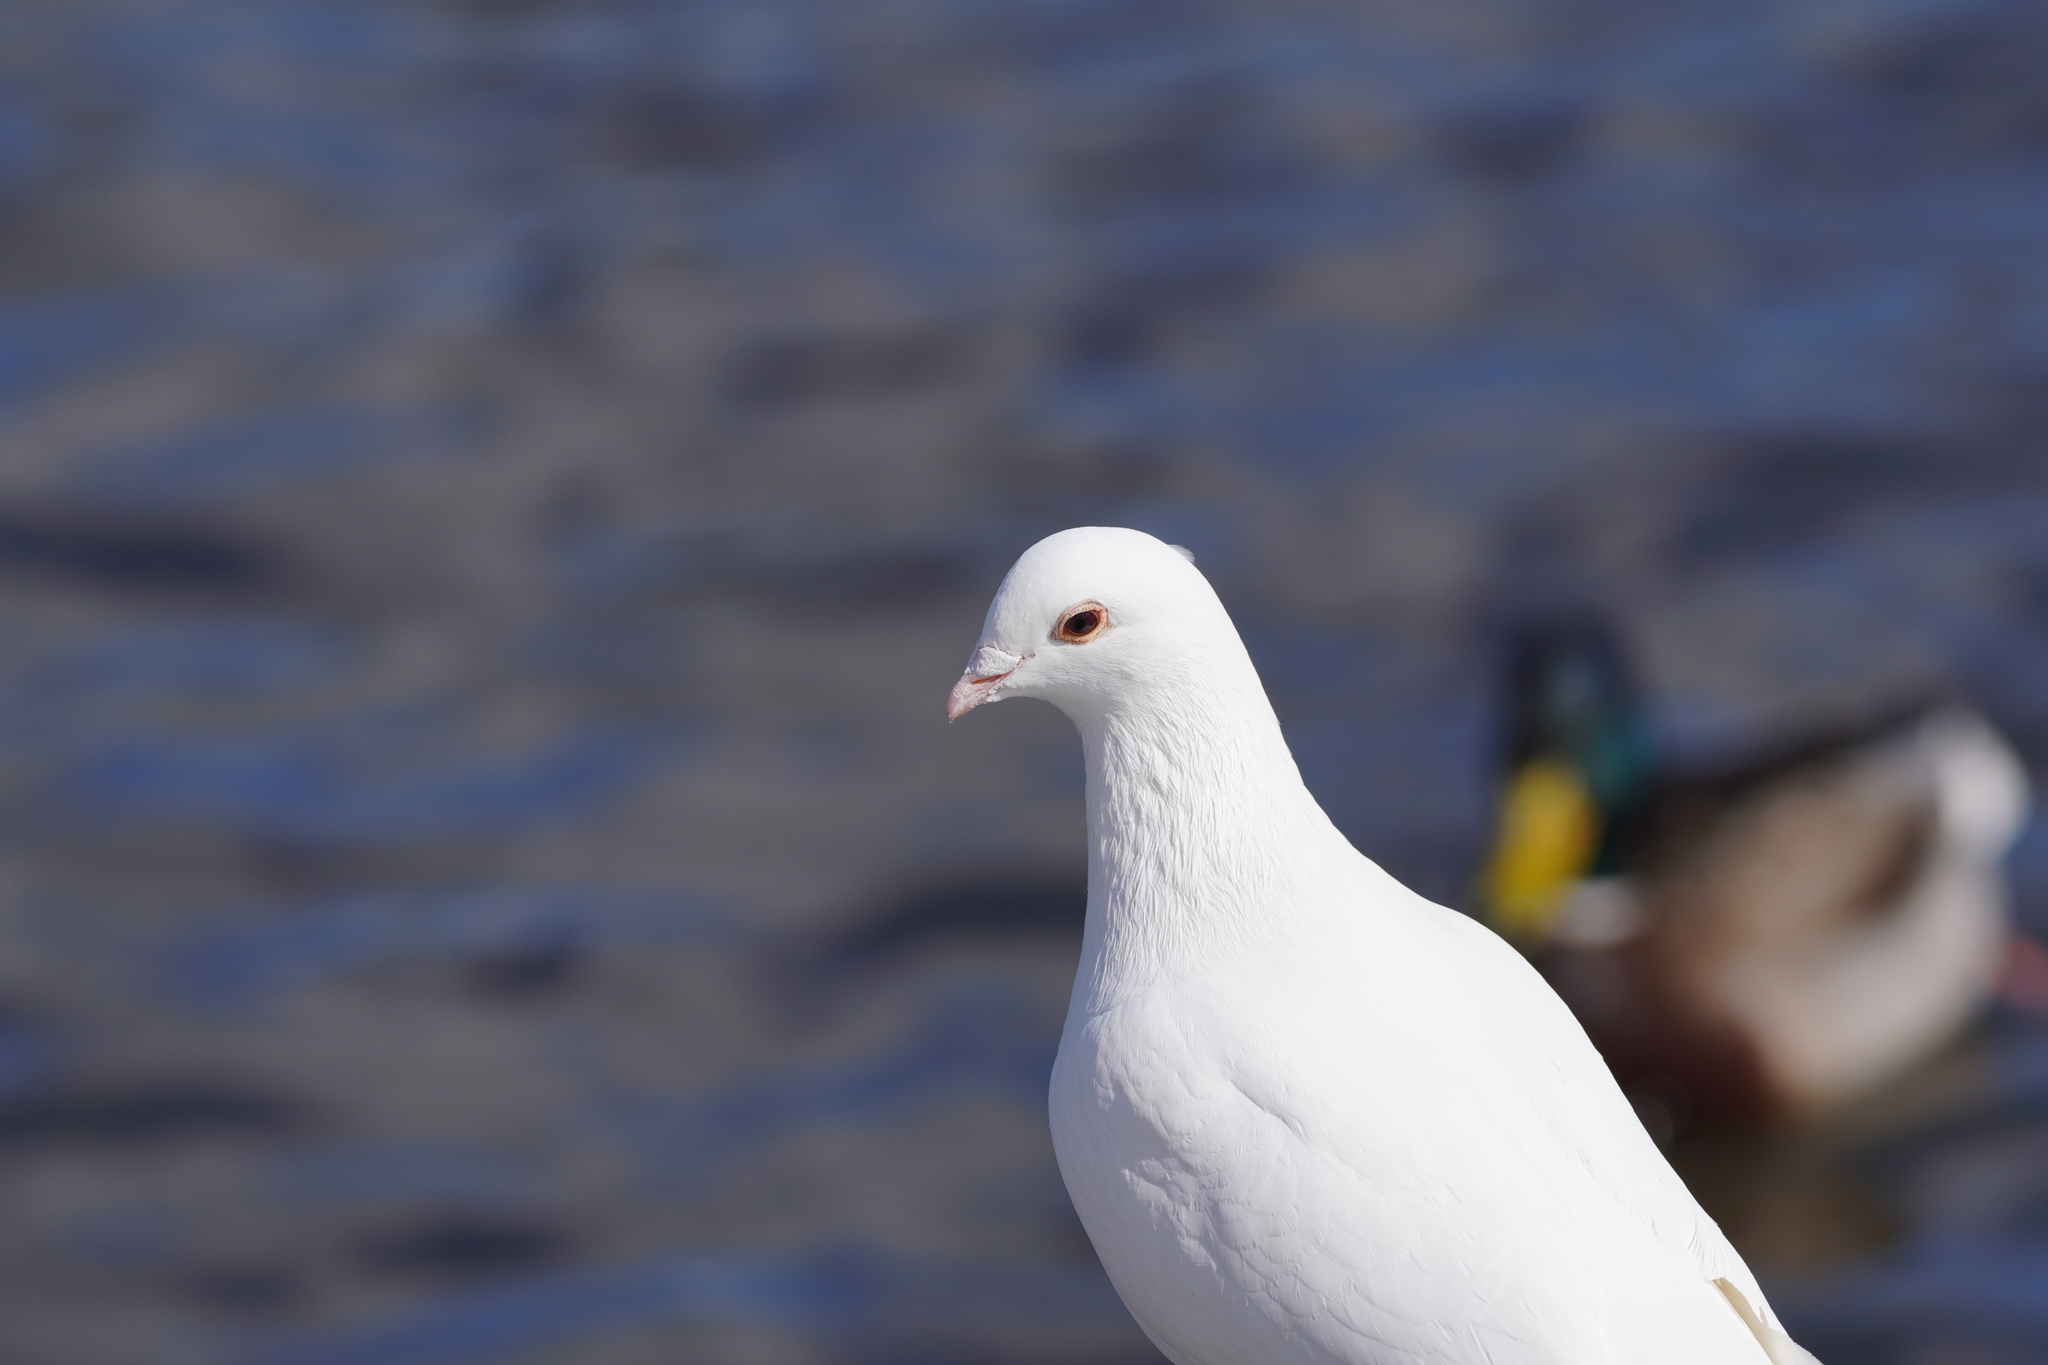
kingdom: Animalia
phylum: Chordata
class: Aves
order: Columbiformes
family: Columbidae
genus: Columba
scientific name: Columba livia
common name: Rock pigeon
